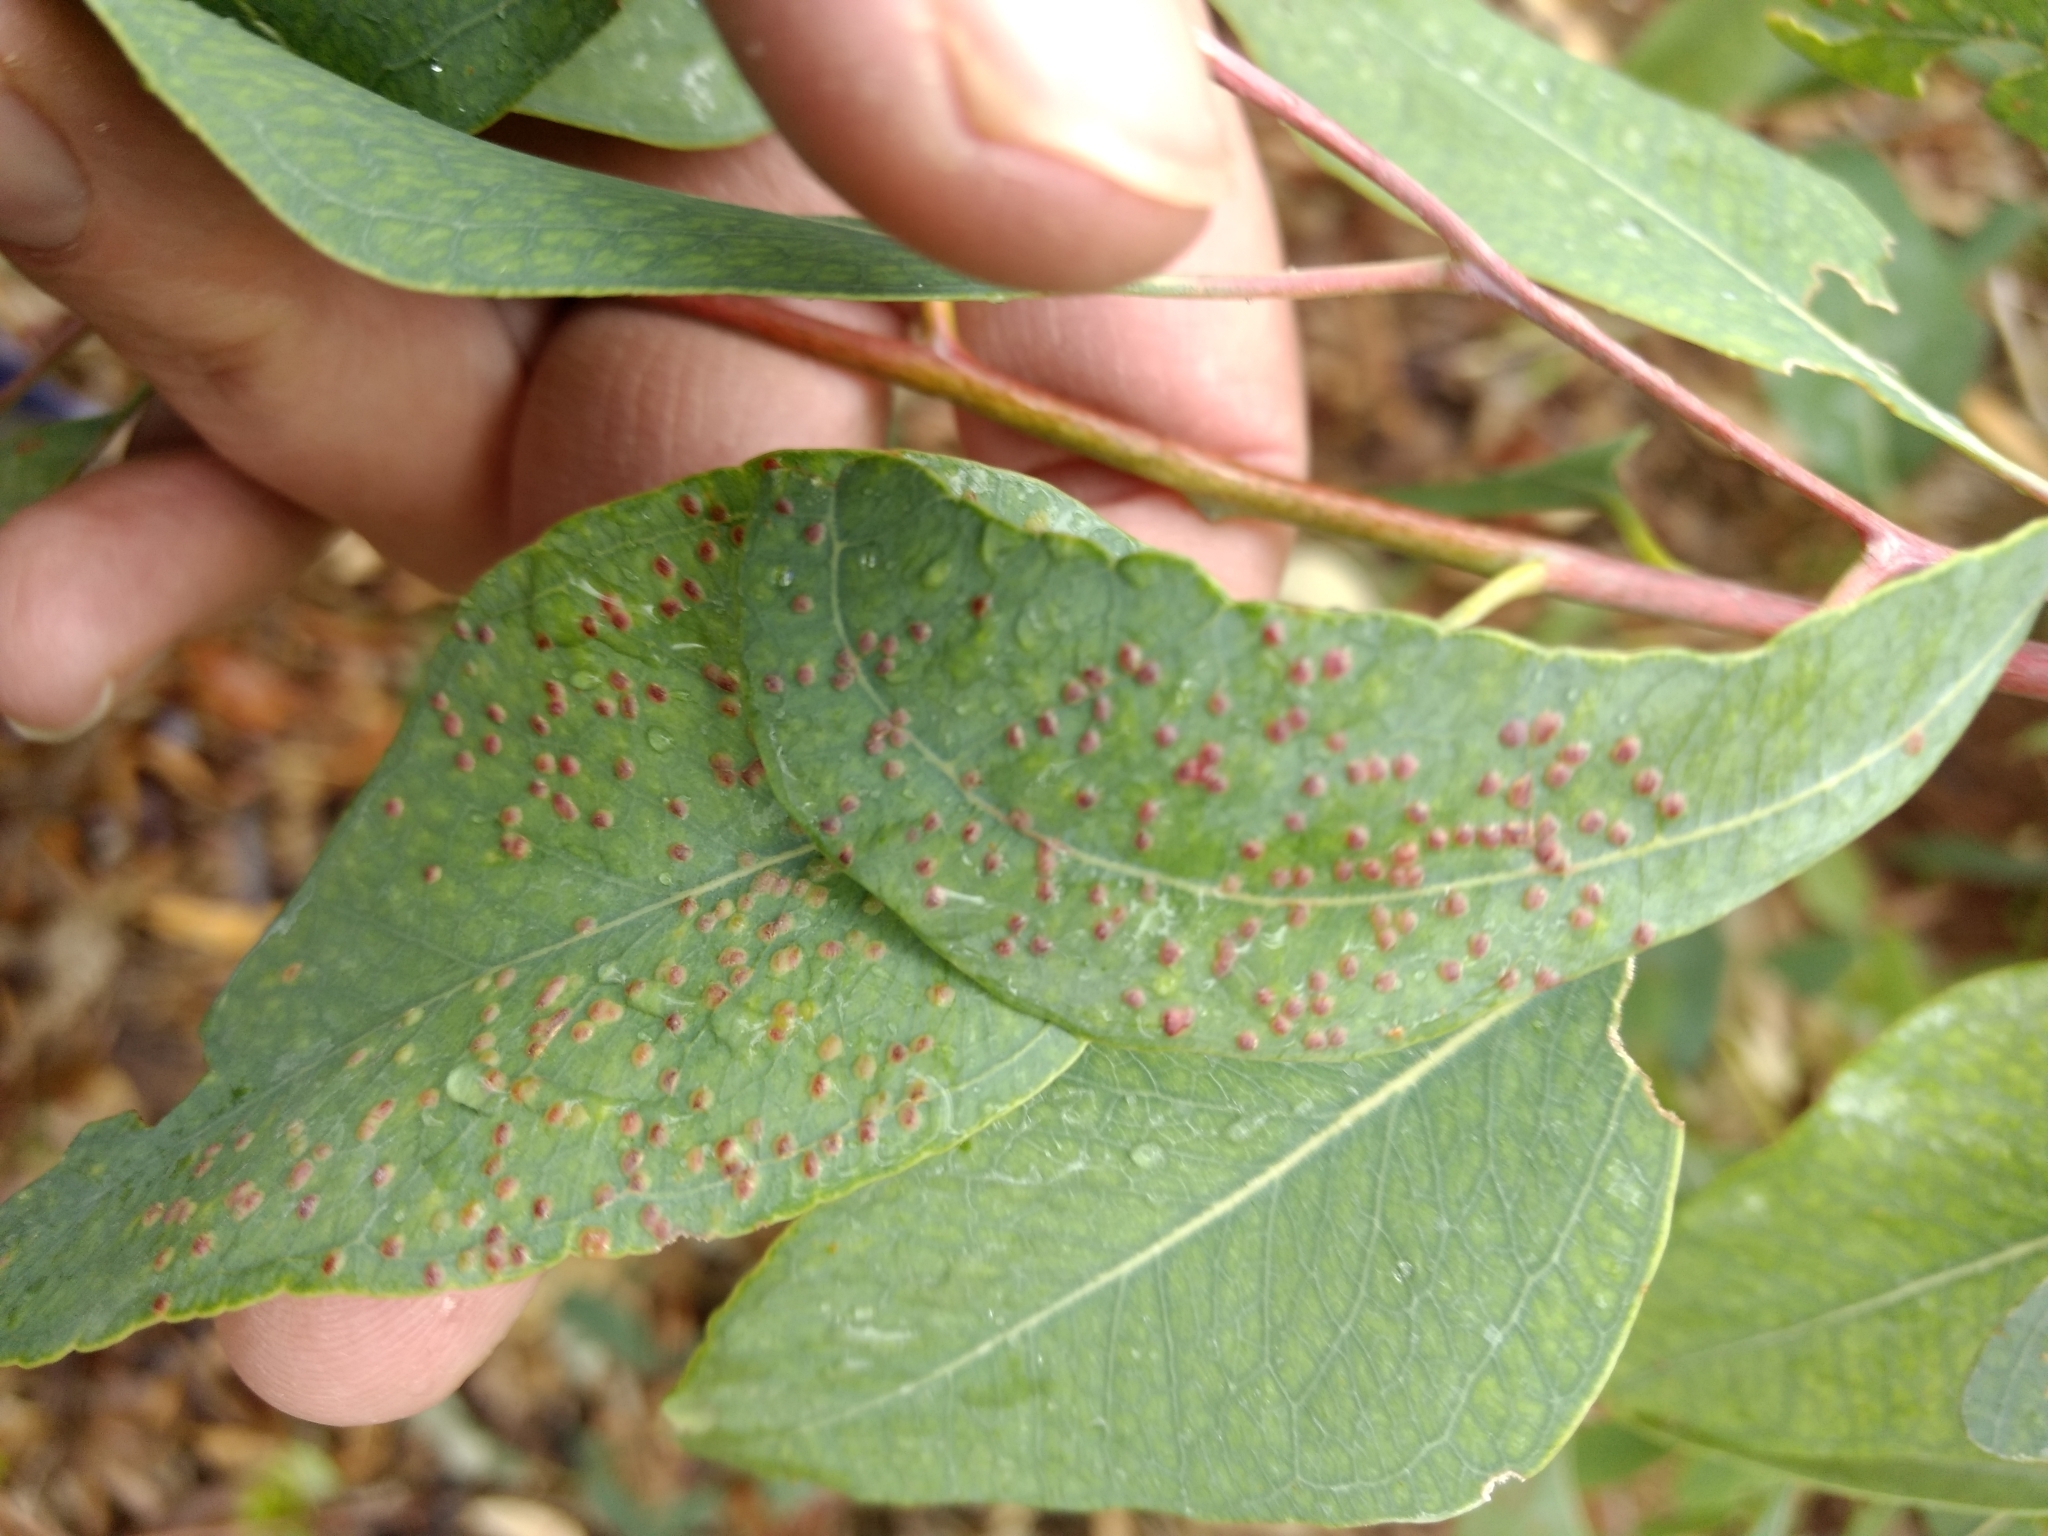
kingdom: Animalia
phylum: Arthropoda
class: Insecta
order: Hymenoptera
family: Eulophidae
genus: Ophelimus
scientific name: Ophelimus maskelli
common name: Gall wasp
